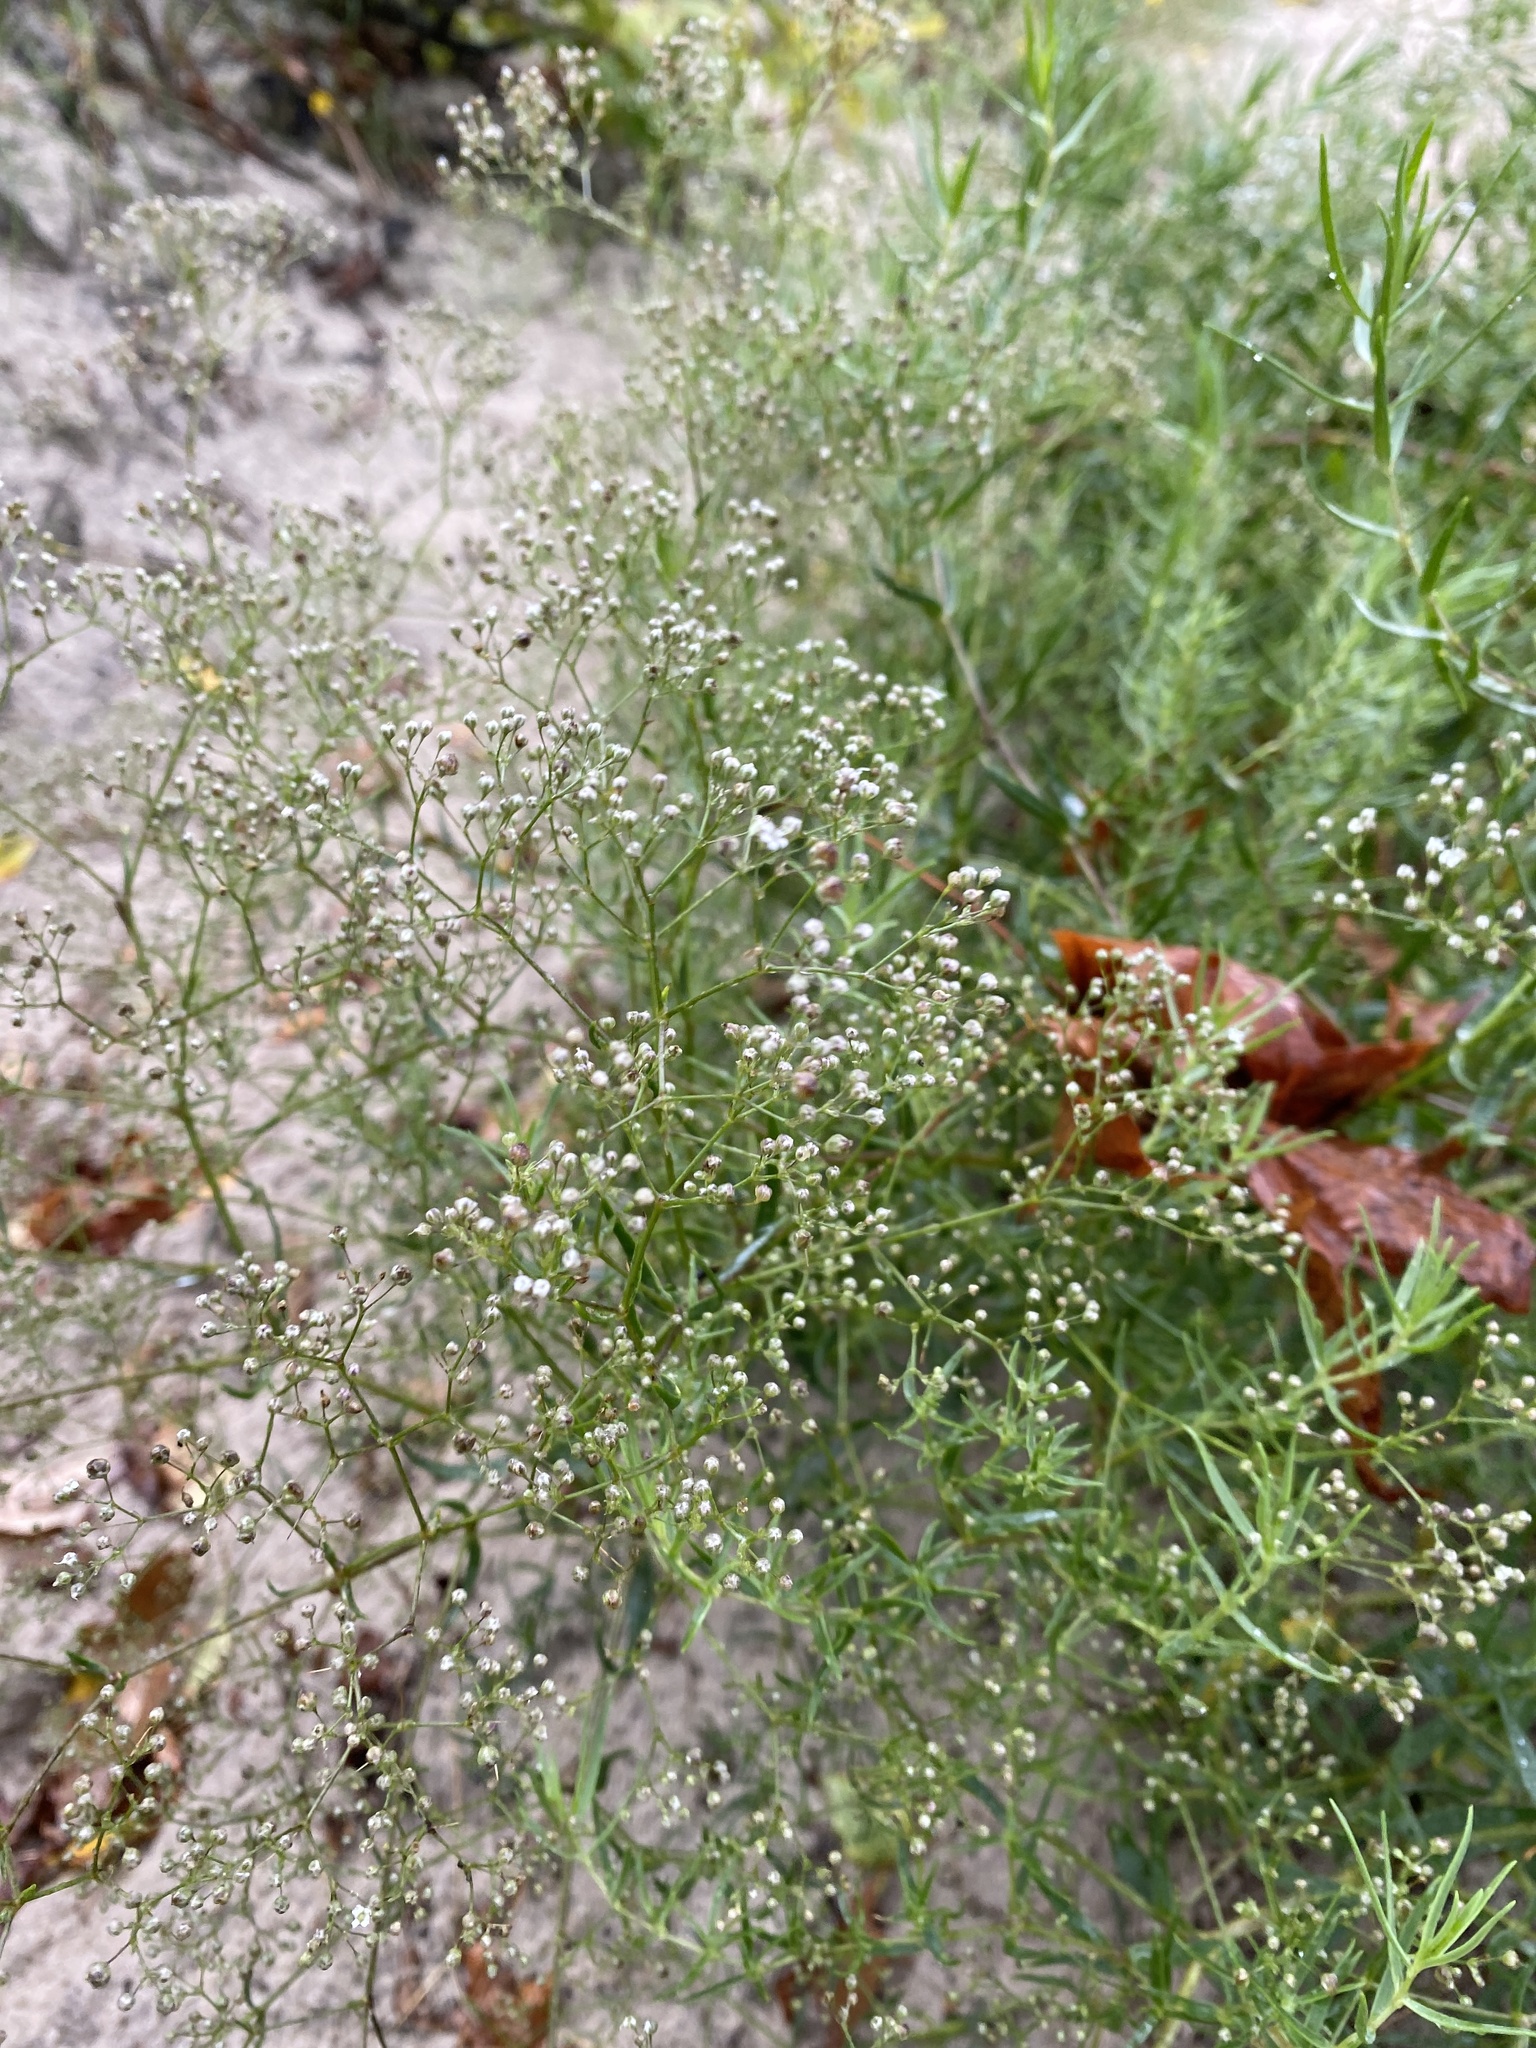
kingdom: Plantae
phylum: Tracheophyta
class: Magnoliopsida
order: Caryophyllales
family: Caryophyllaceae
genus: Gypsophila
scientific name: Gypsophila paniculata
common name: Baby's-breath
